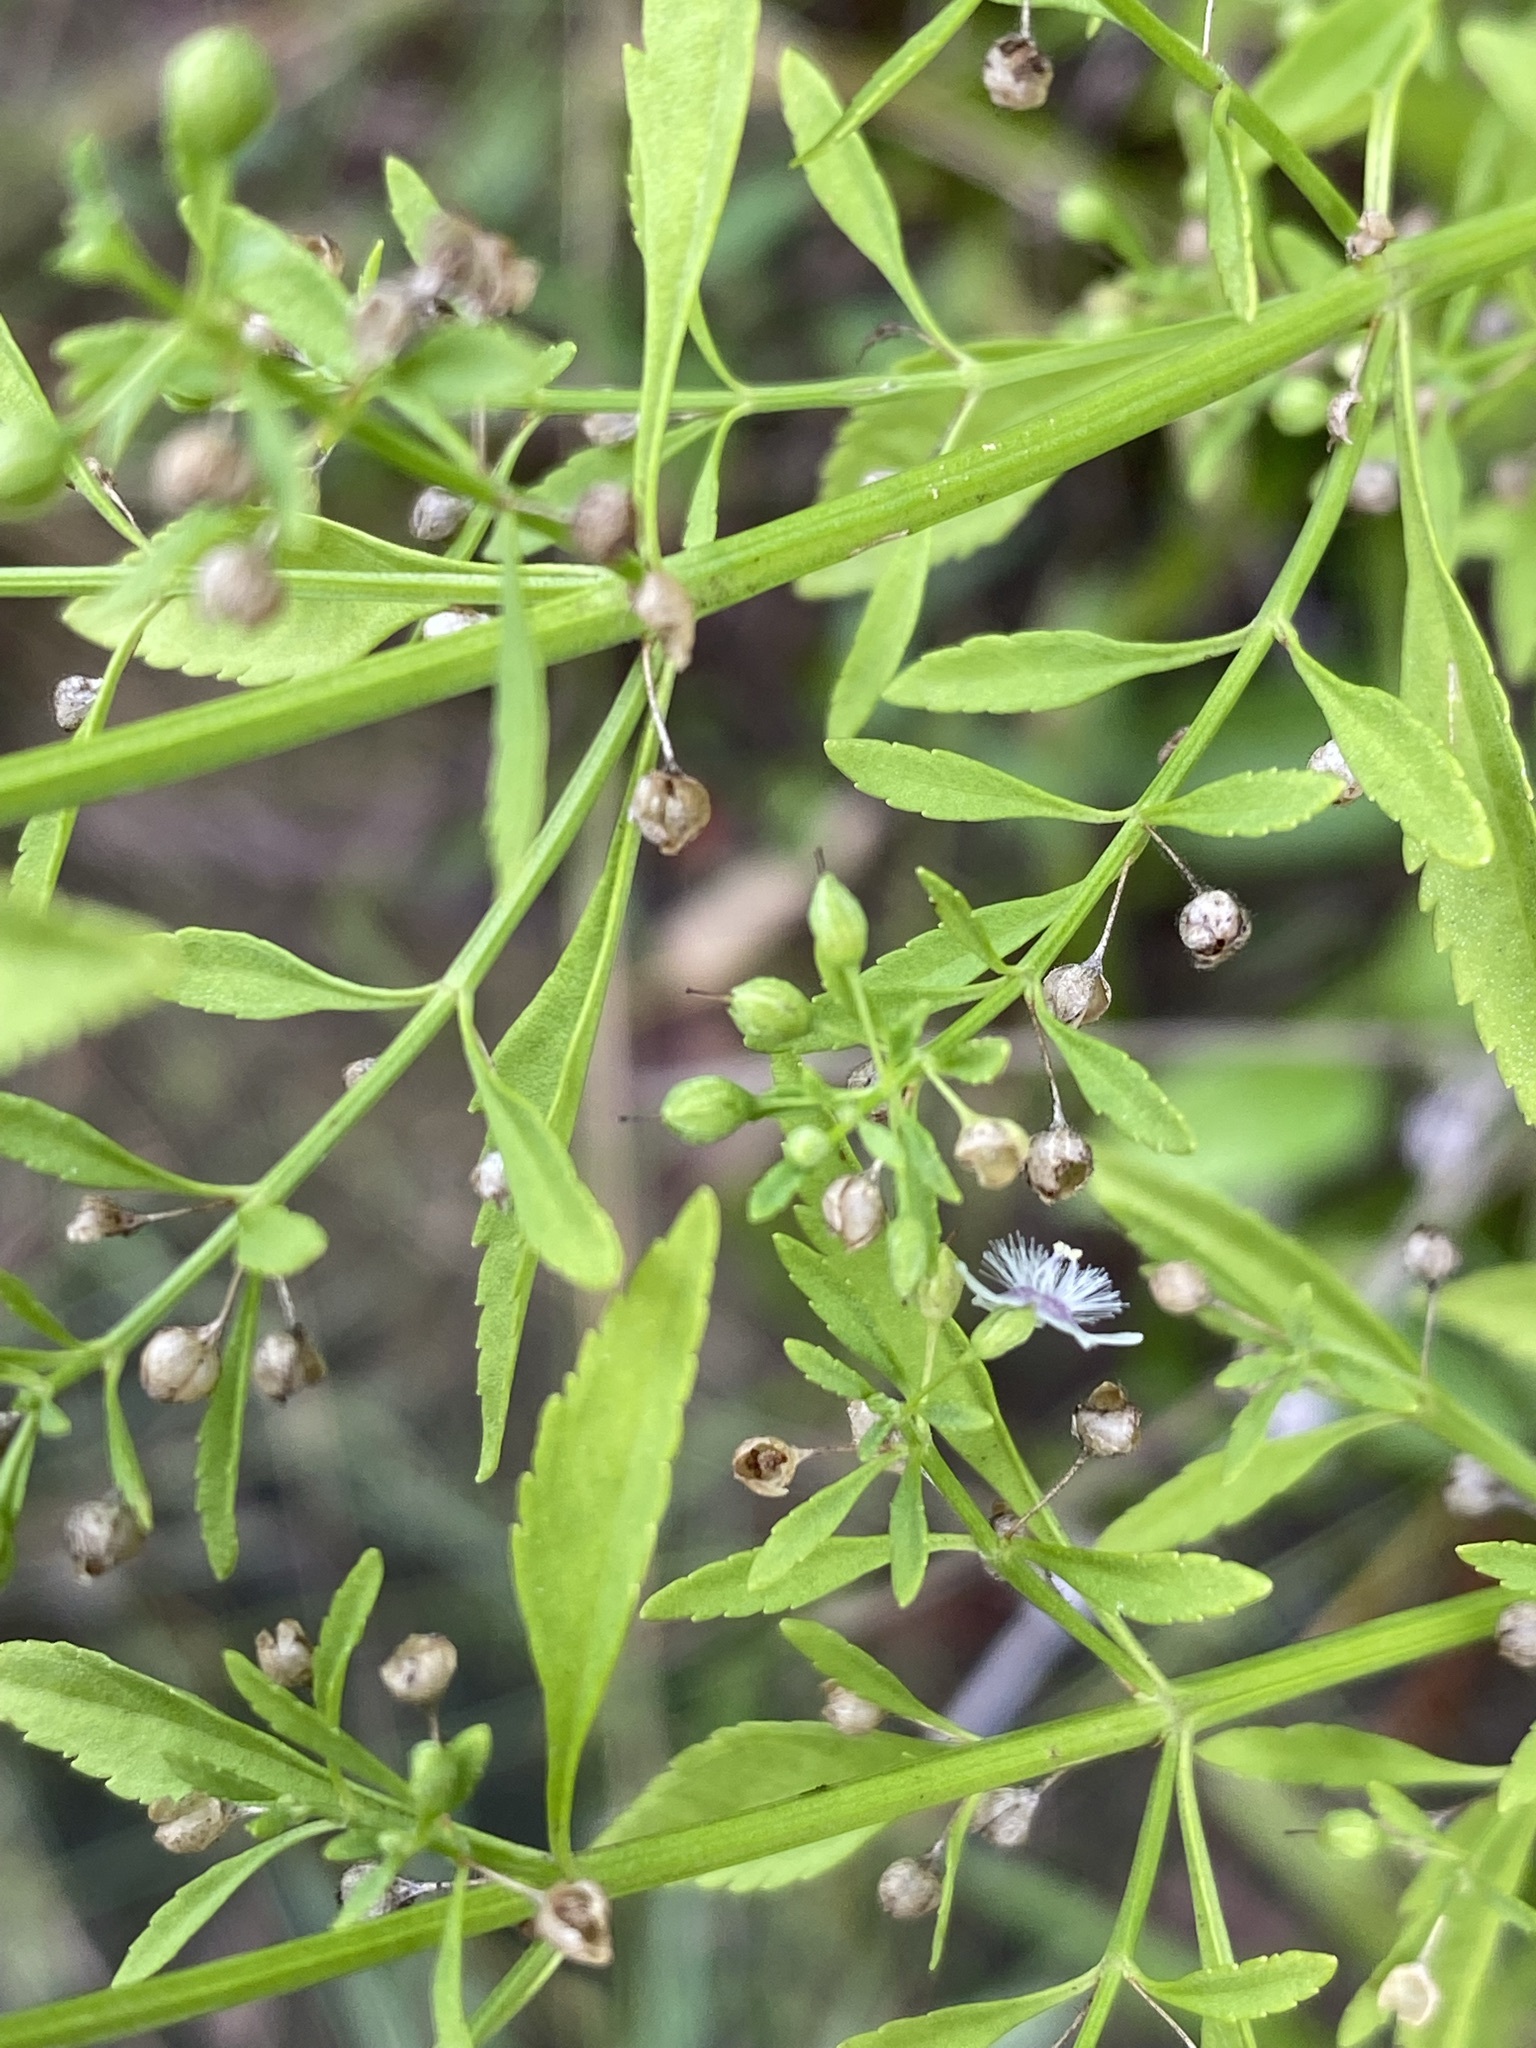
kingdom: Plantae
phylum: Tracheophyta
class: Magnoliopsida
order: Lamiales
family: Plantaginaceae
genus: Scoparia
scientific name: Scoparia dulcis
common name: Scoparia-weed
